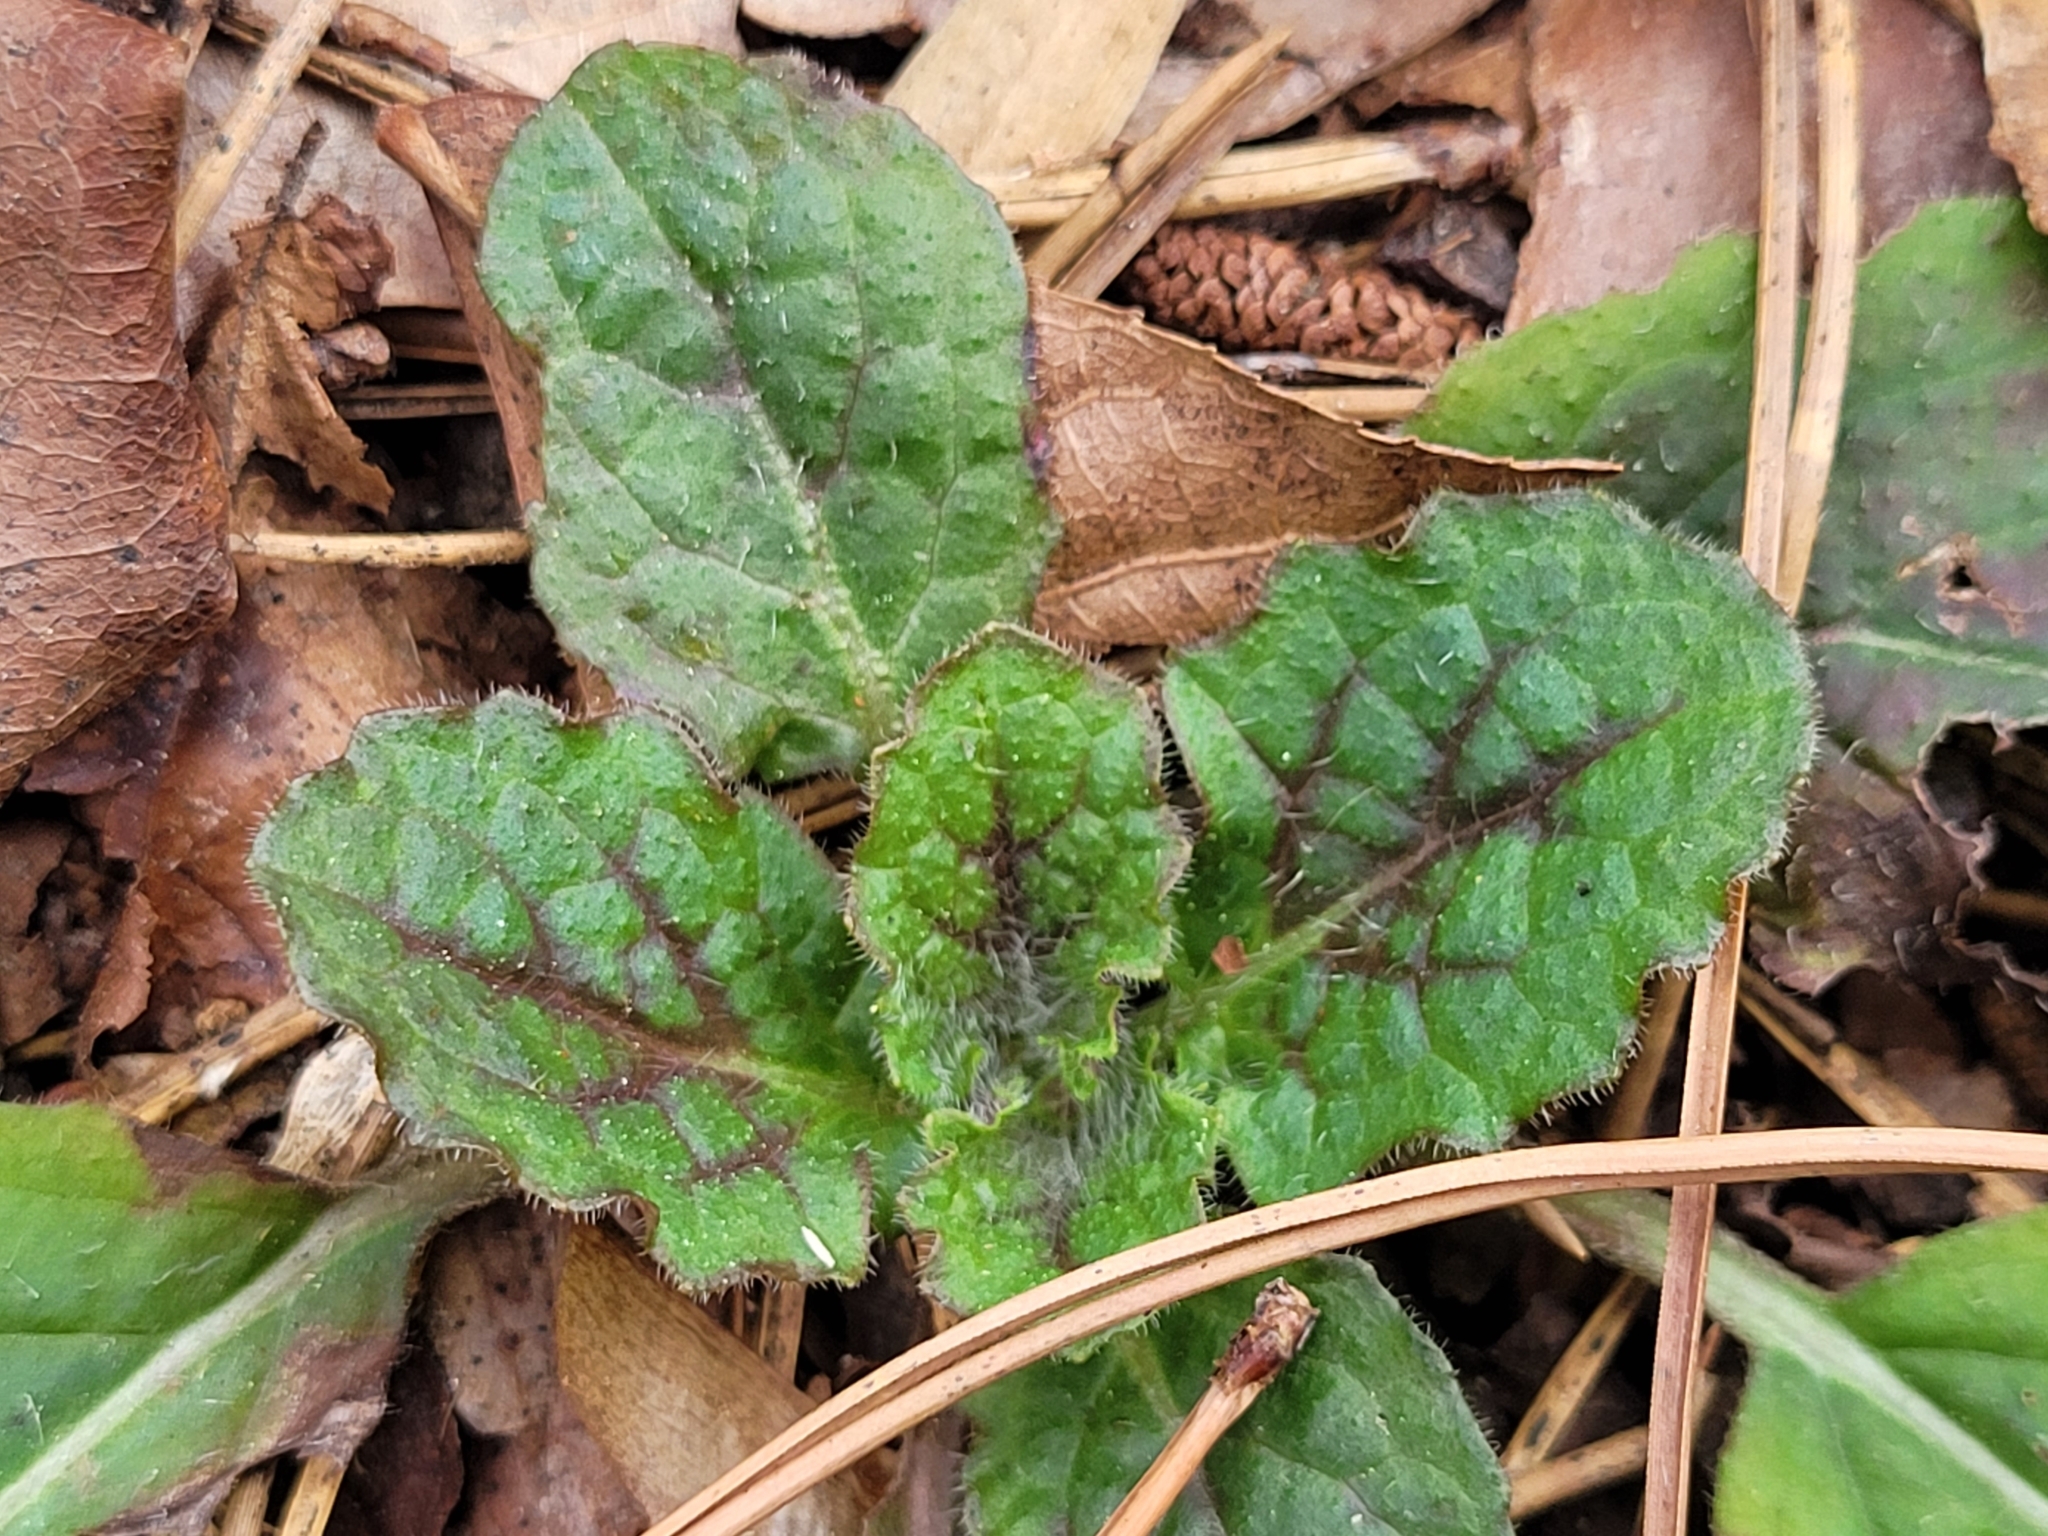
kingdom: Plantae
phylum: Tracheophyta
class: Magnoliopsida
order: Lamiales
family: Lamiaceae
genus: Salvia
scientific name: Salvia lyrata
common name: Cancerweed
